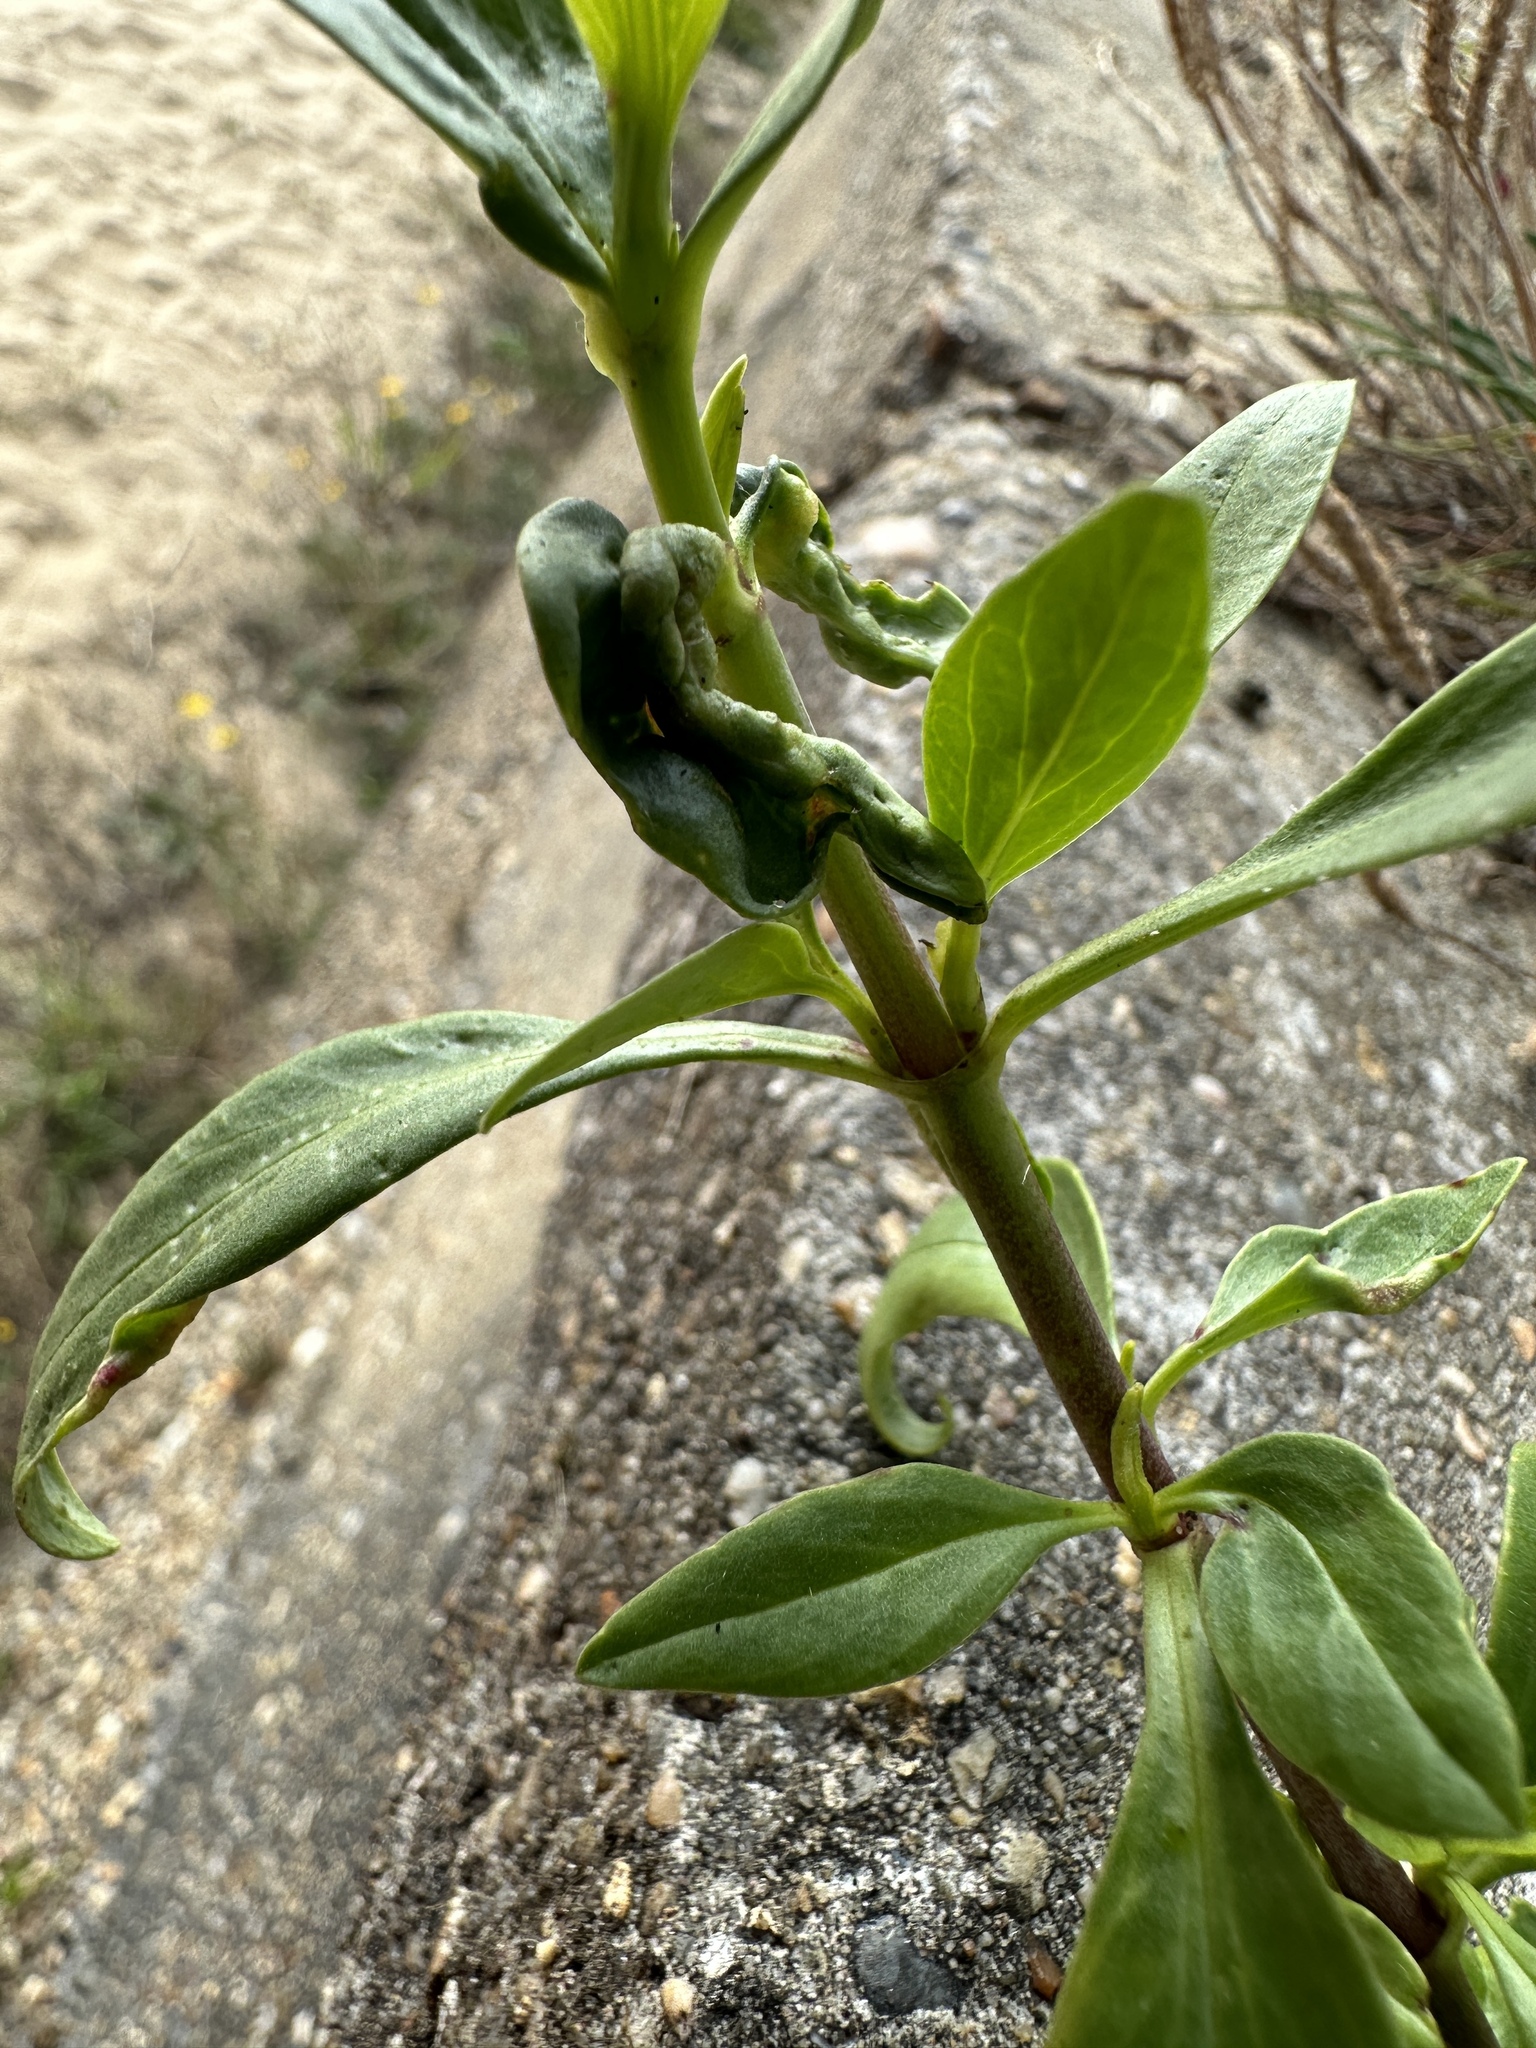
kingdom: Animalia
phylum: Arthropoda
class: Insecta
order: Hemiptera
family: Triozidae
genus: Trioza
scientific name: Trioza centranthi
